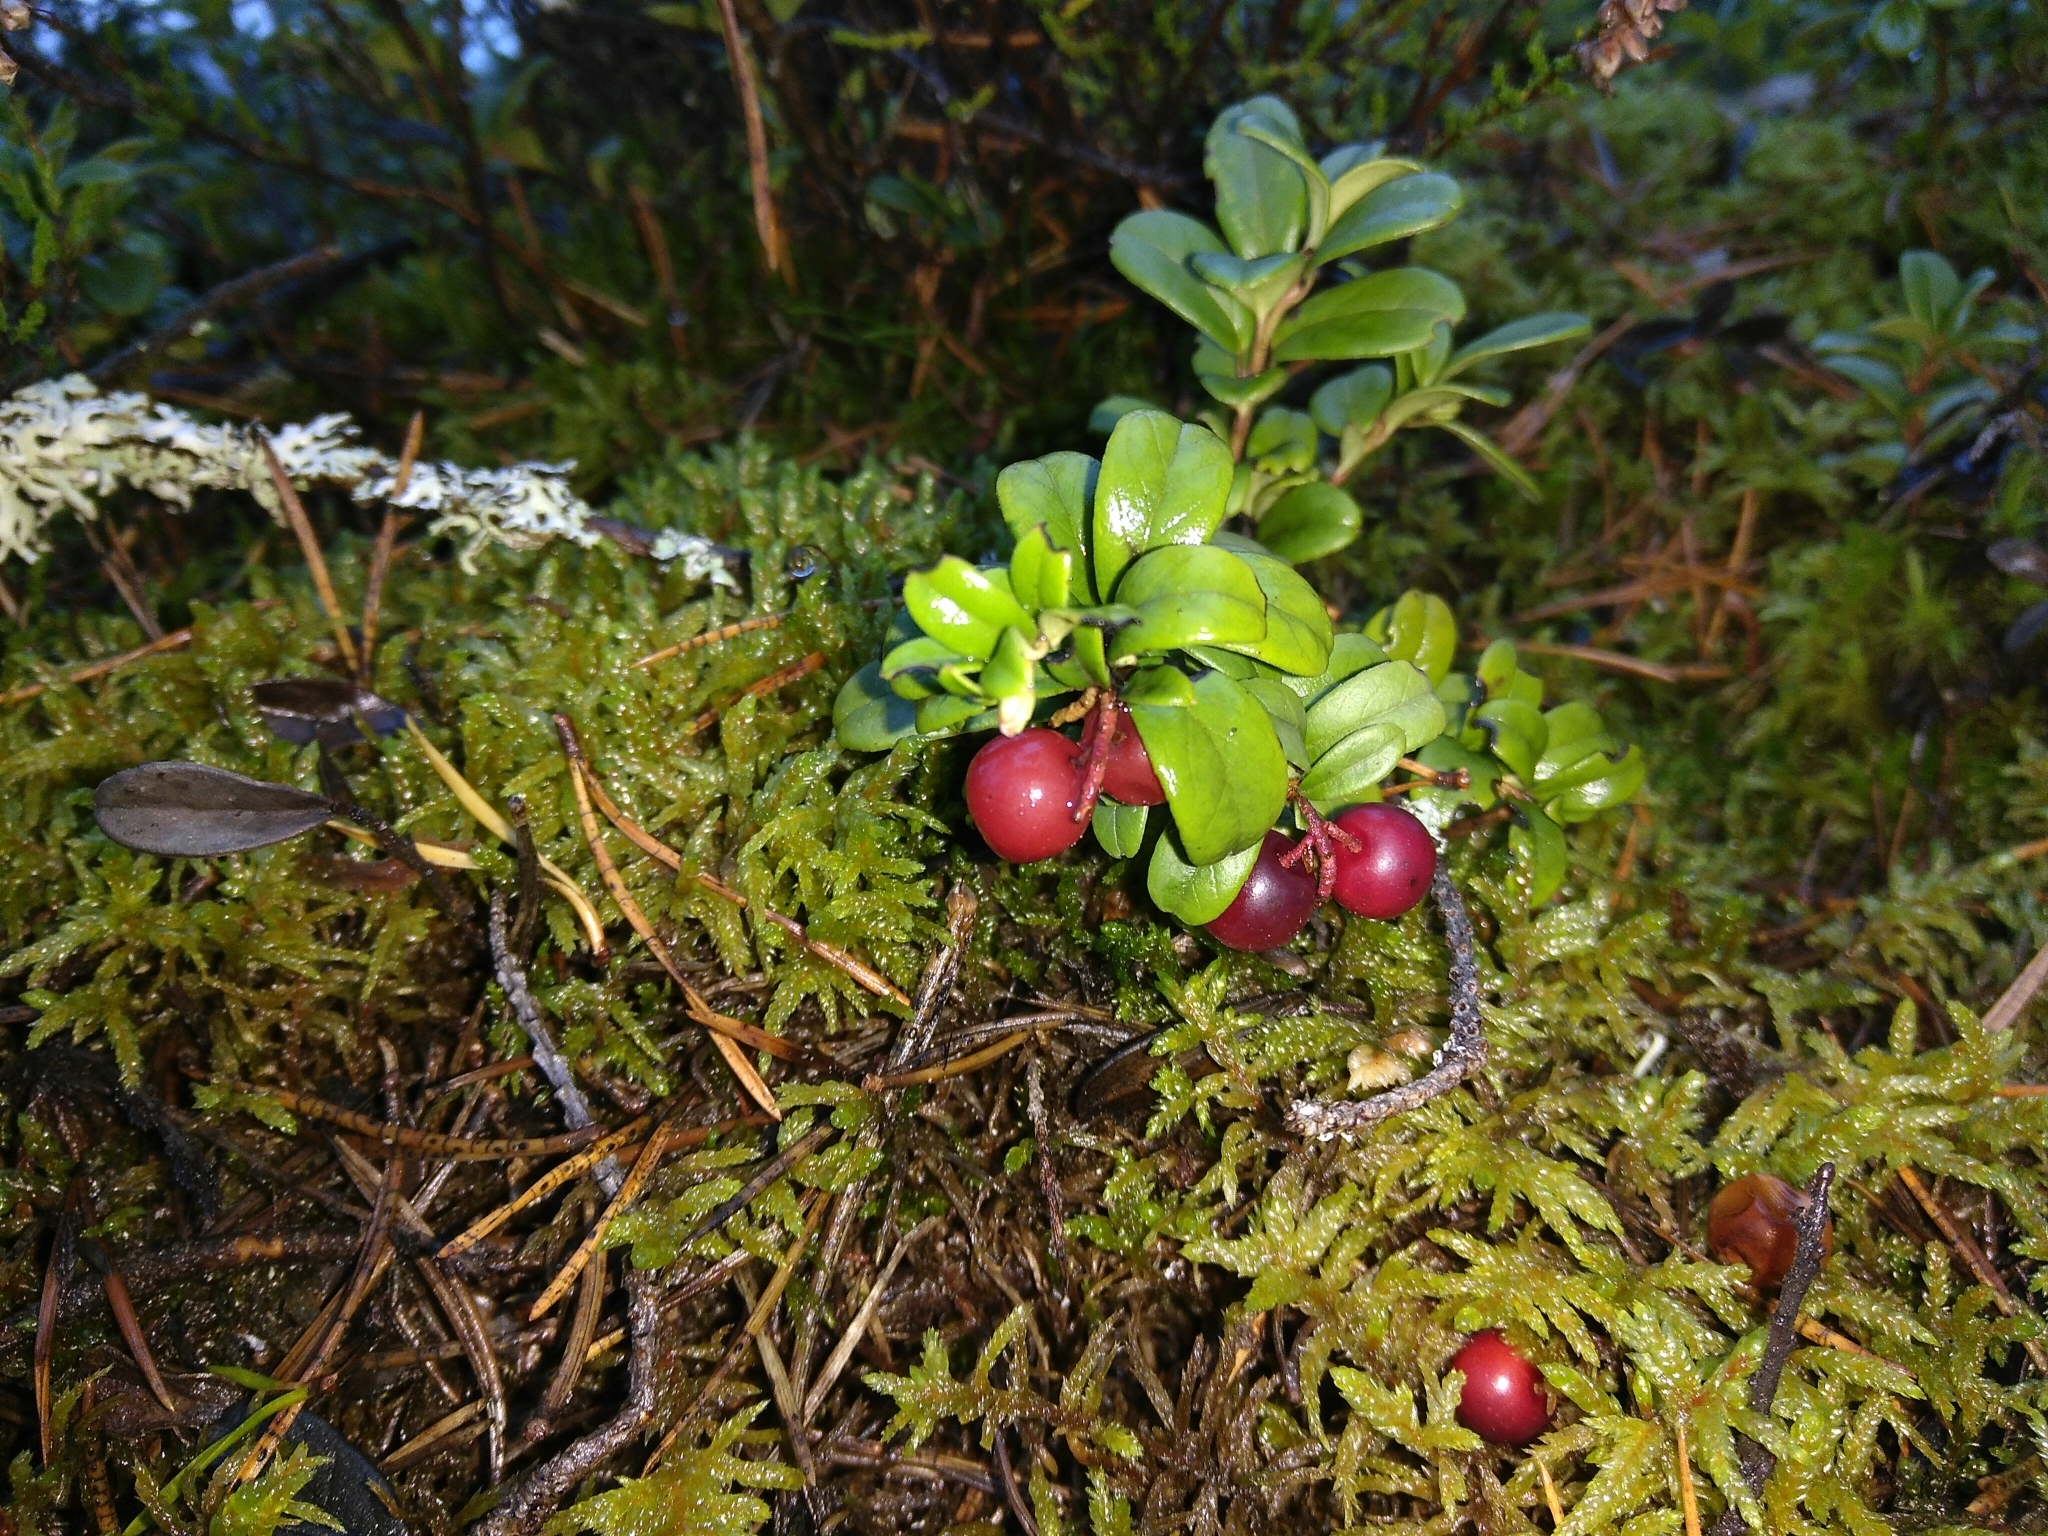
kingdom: Plantae
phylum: Tracheophyta
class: Magnoliopsida
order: Ericales
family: Ericaceae
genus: Vaccinium
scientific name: Vaccinium vitis-idaea
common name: Cowberry
